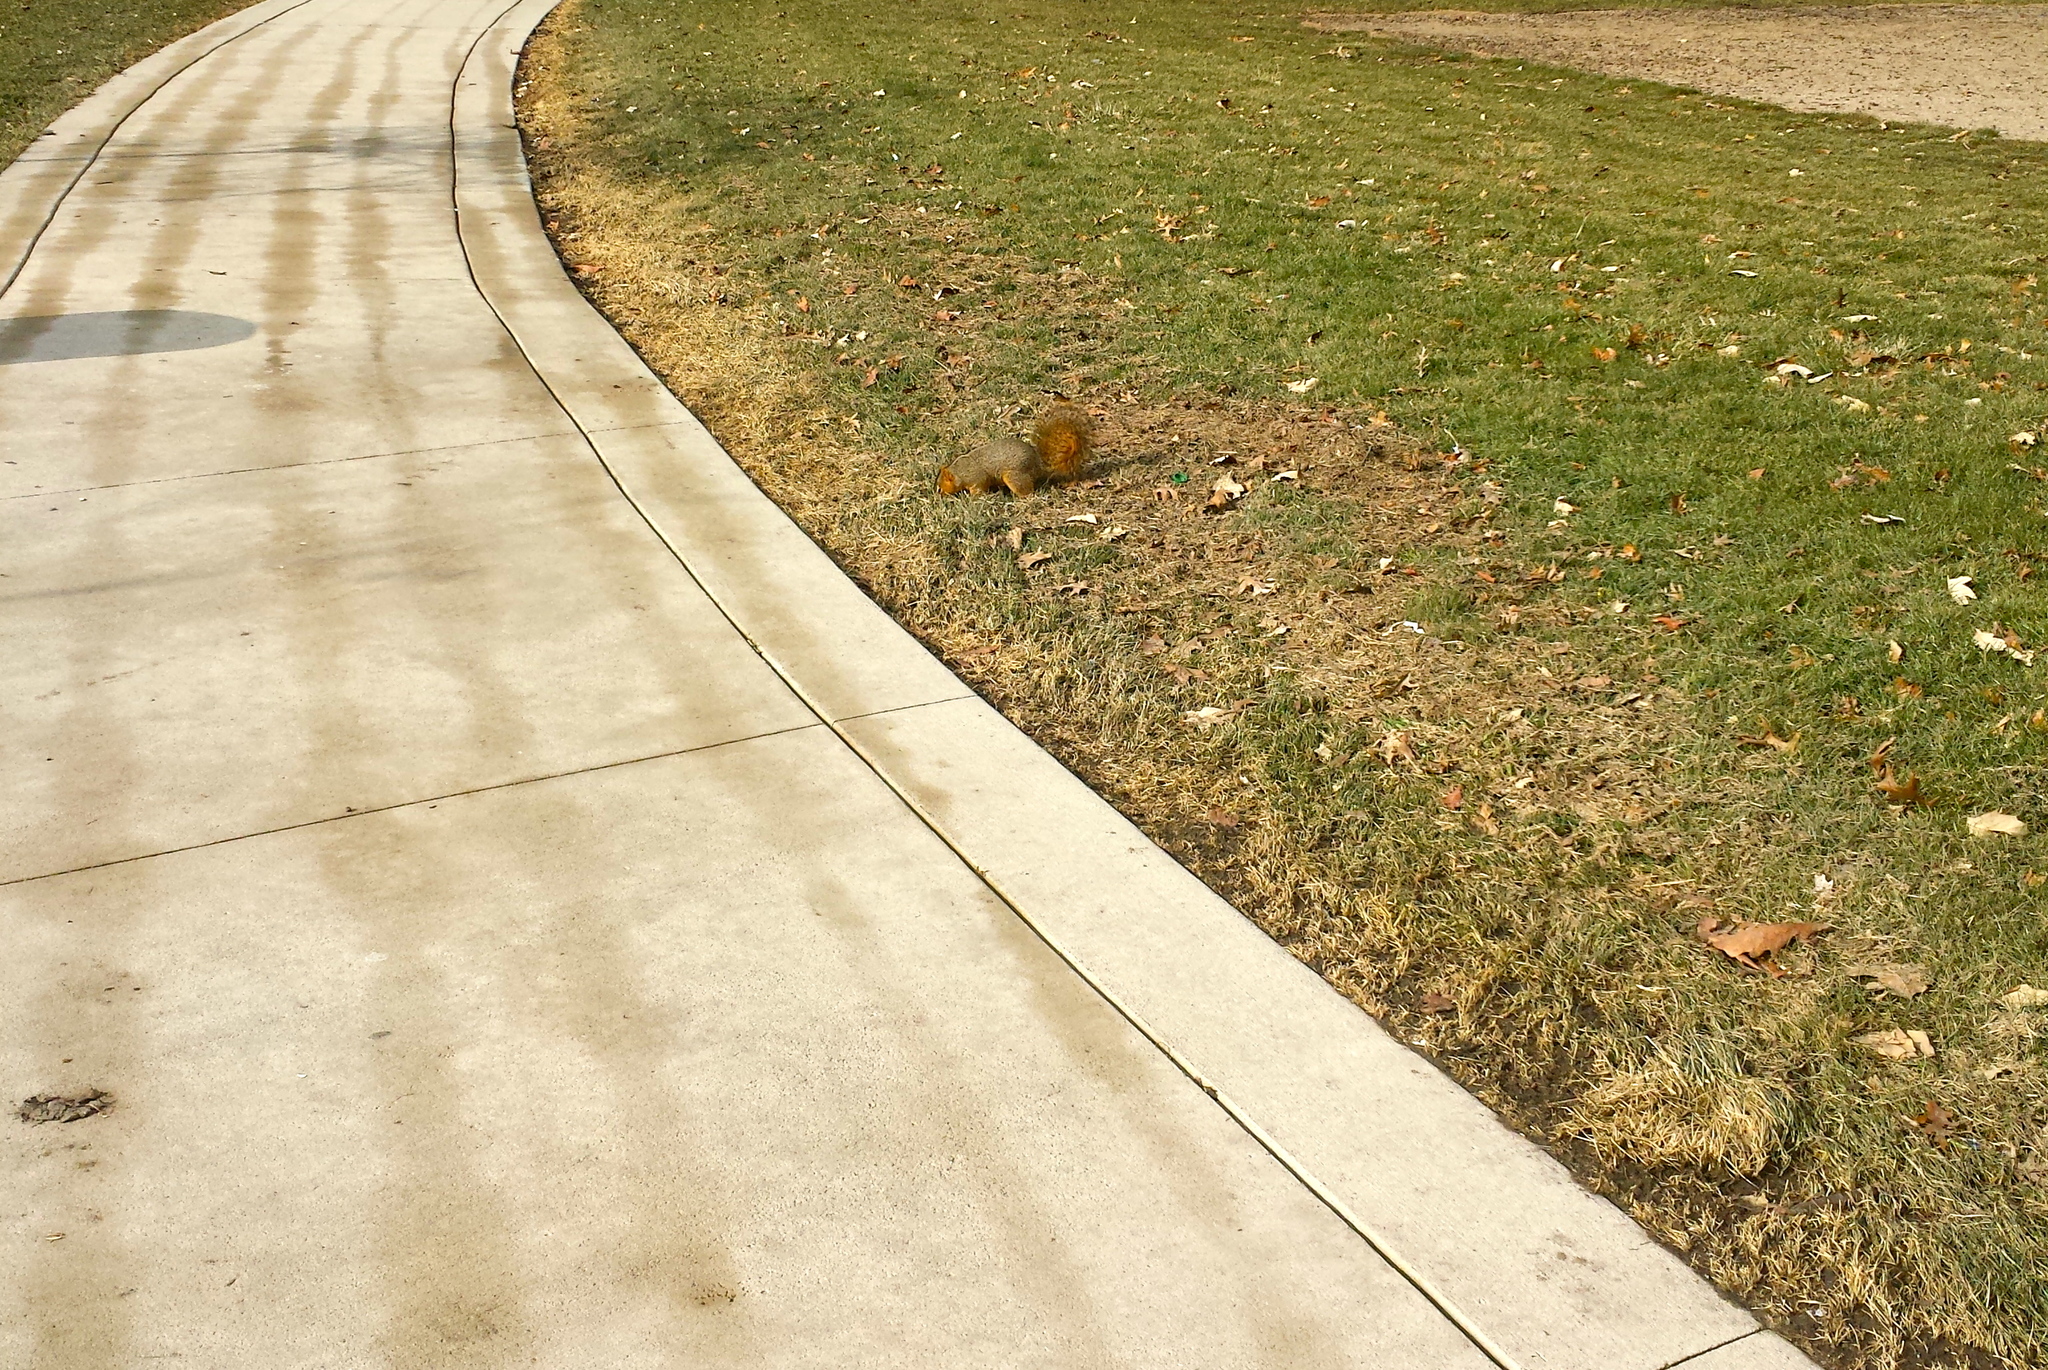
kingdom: Animalia
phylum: Chordata
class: Mammalia
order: Rodentia
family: Sciuridae
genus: Sciurus
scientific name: Sciurus niger
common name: Fox squirrel
